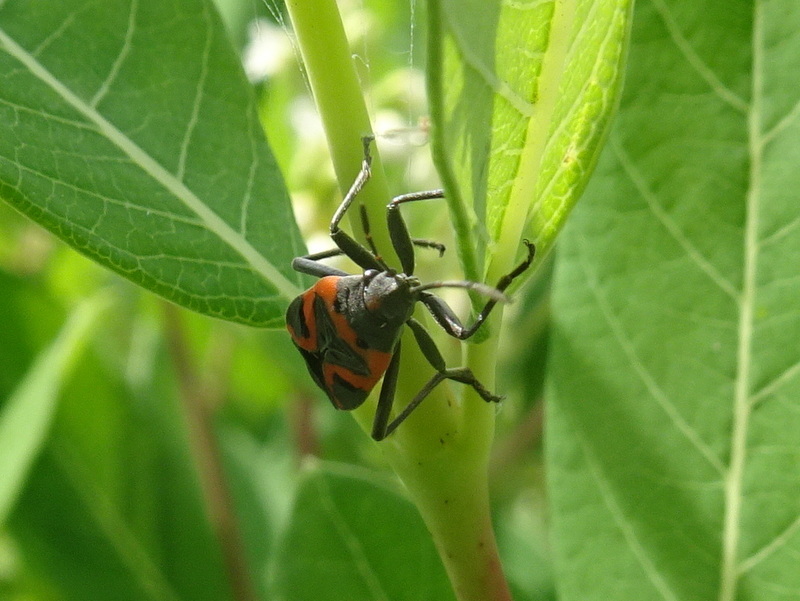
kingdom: Animalia
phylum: Arthropoda
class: Insecta
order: Hemiptera
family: Lygaeidae
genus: Lygaeus
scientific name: Lygaeus kalmii
